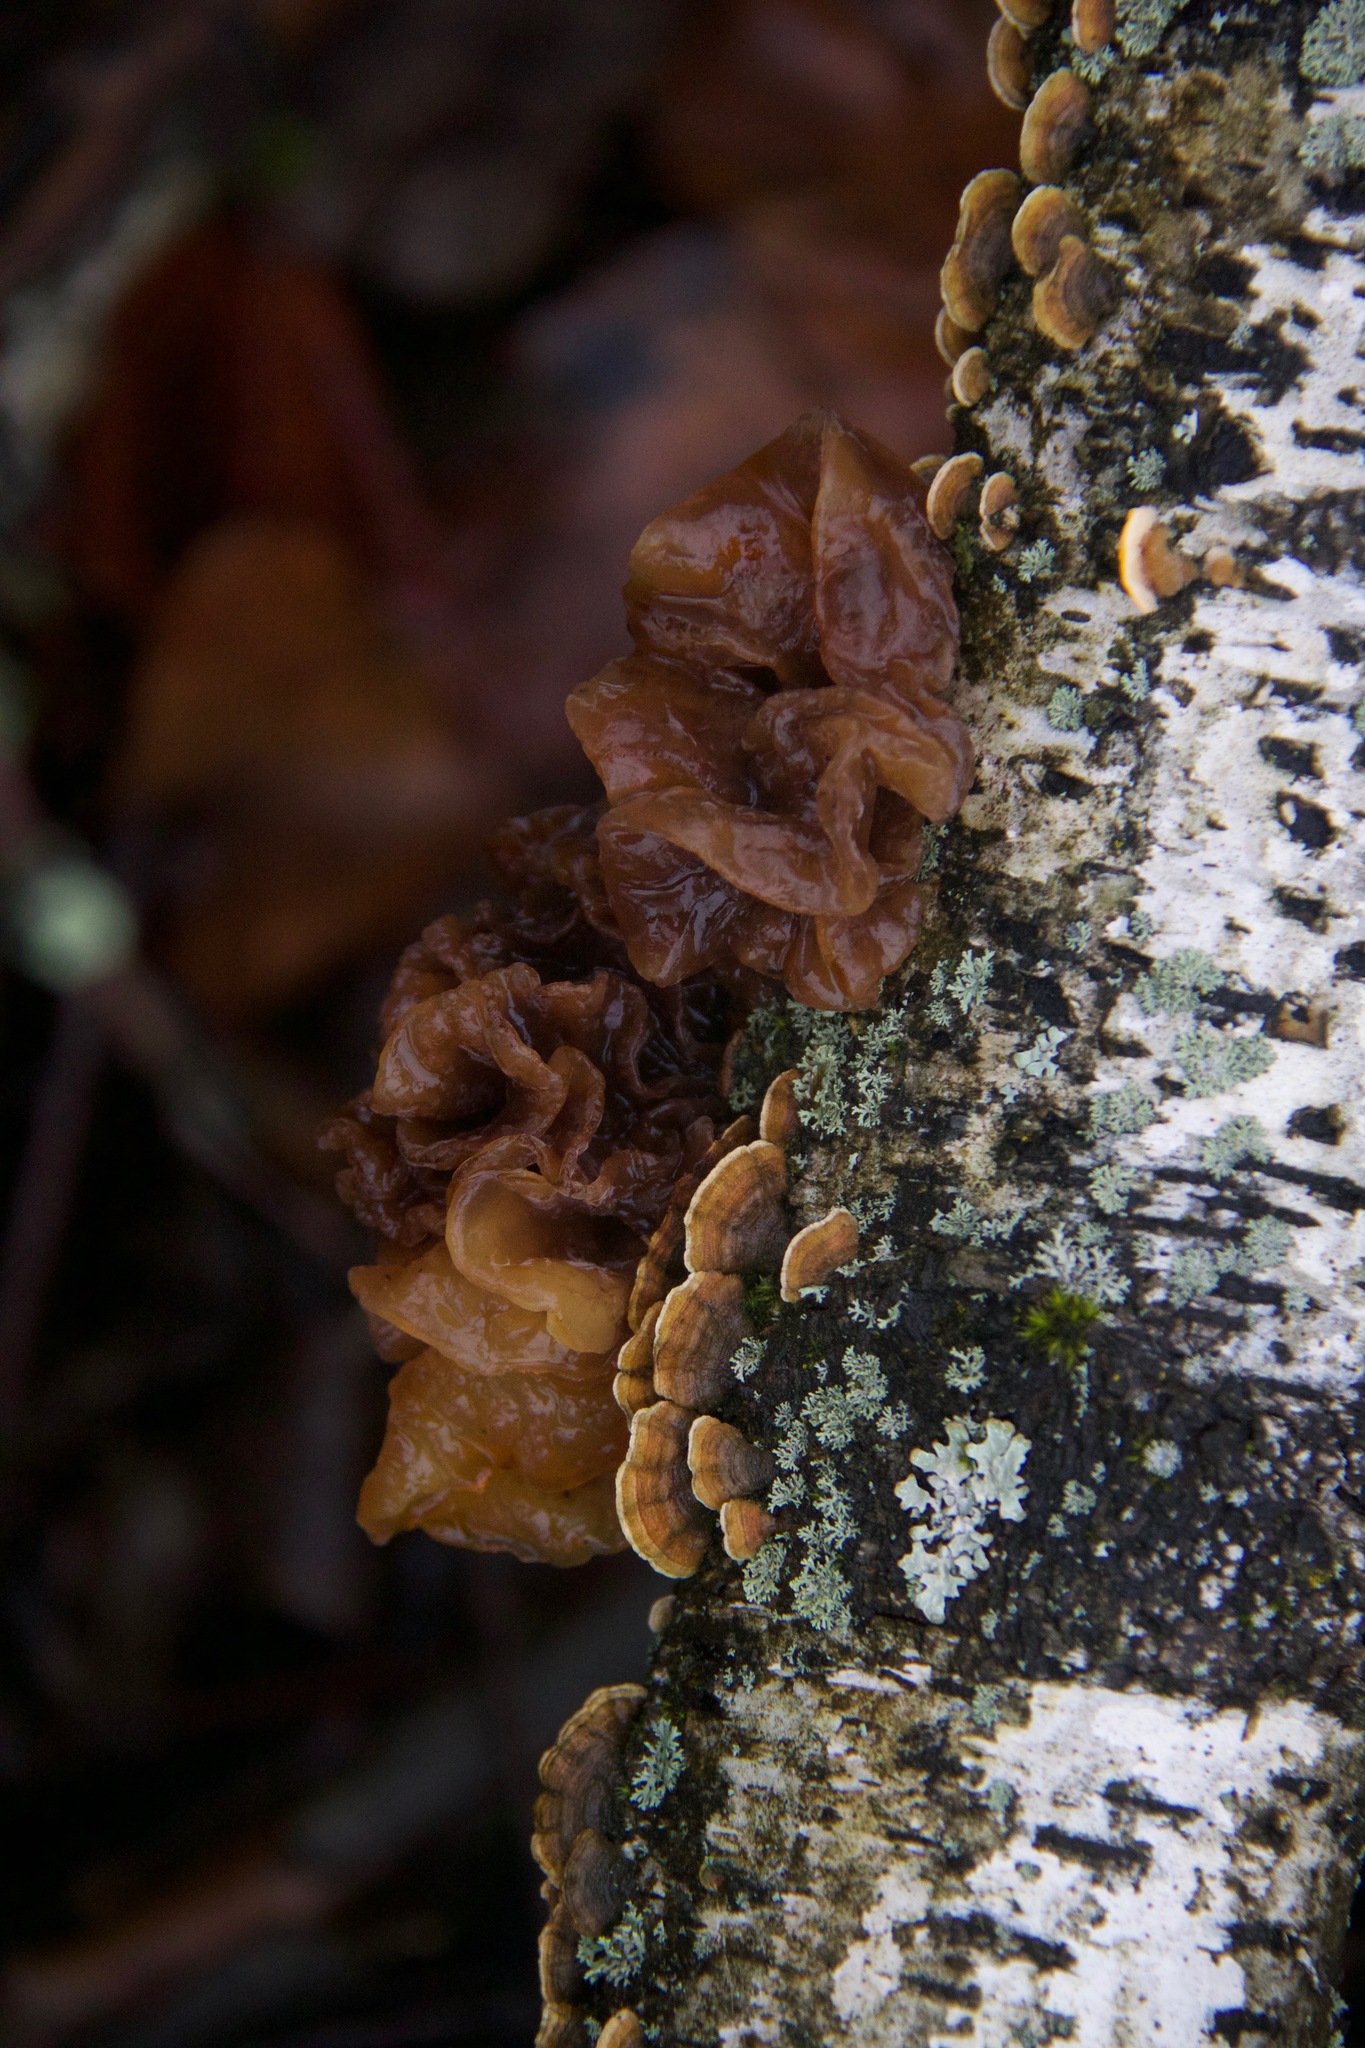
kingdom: Fungi
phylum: Basidiomycota
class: Tremellomycetes
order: Tremellales
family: Tremellaceae
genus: Phaeotremella
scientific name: Phaeotremella frondosa
